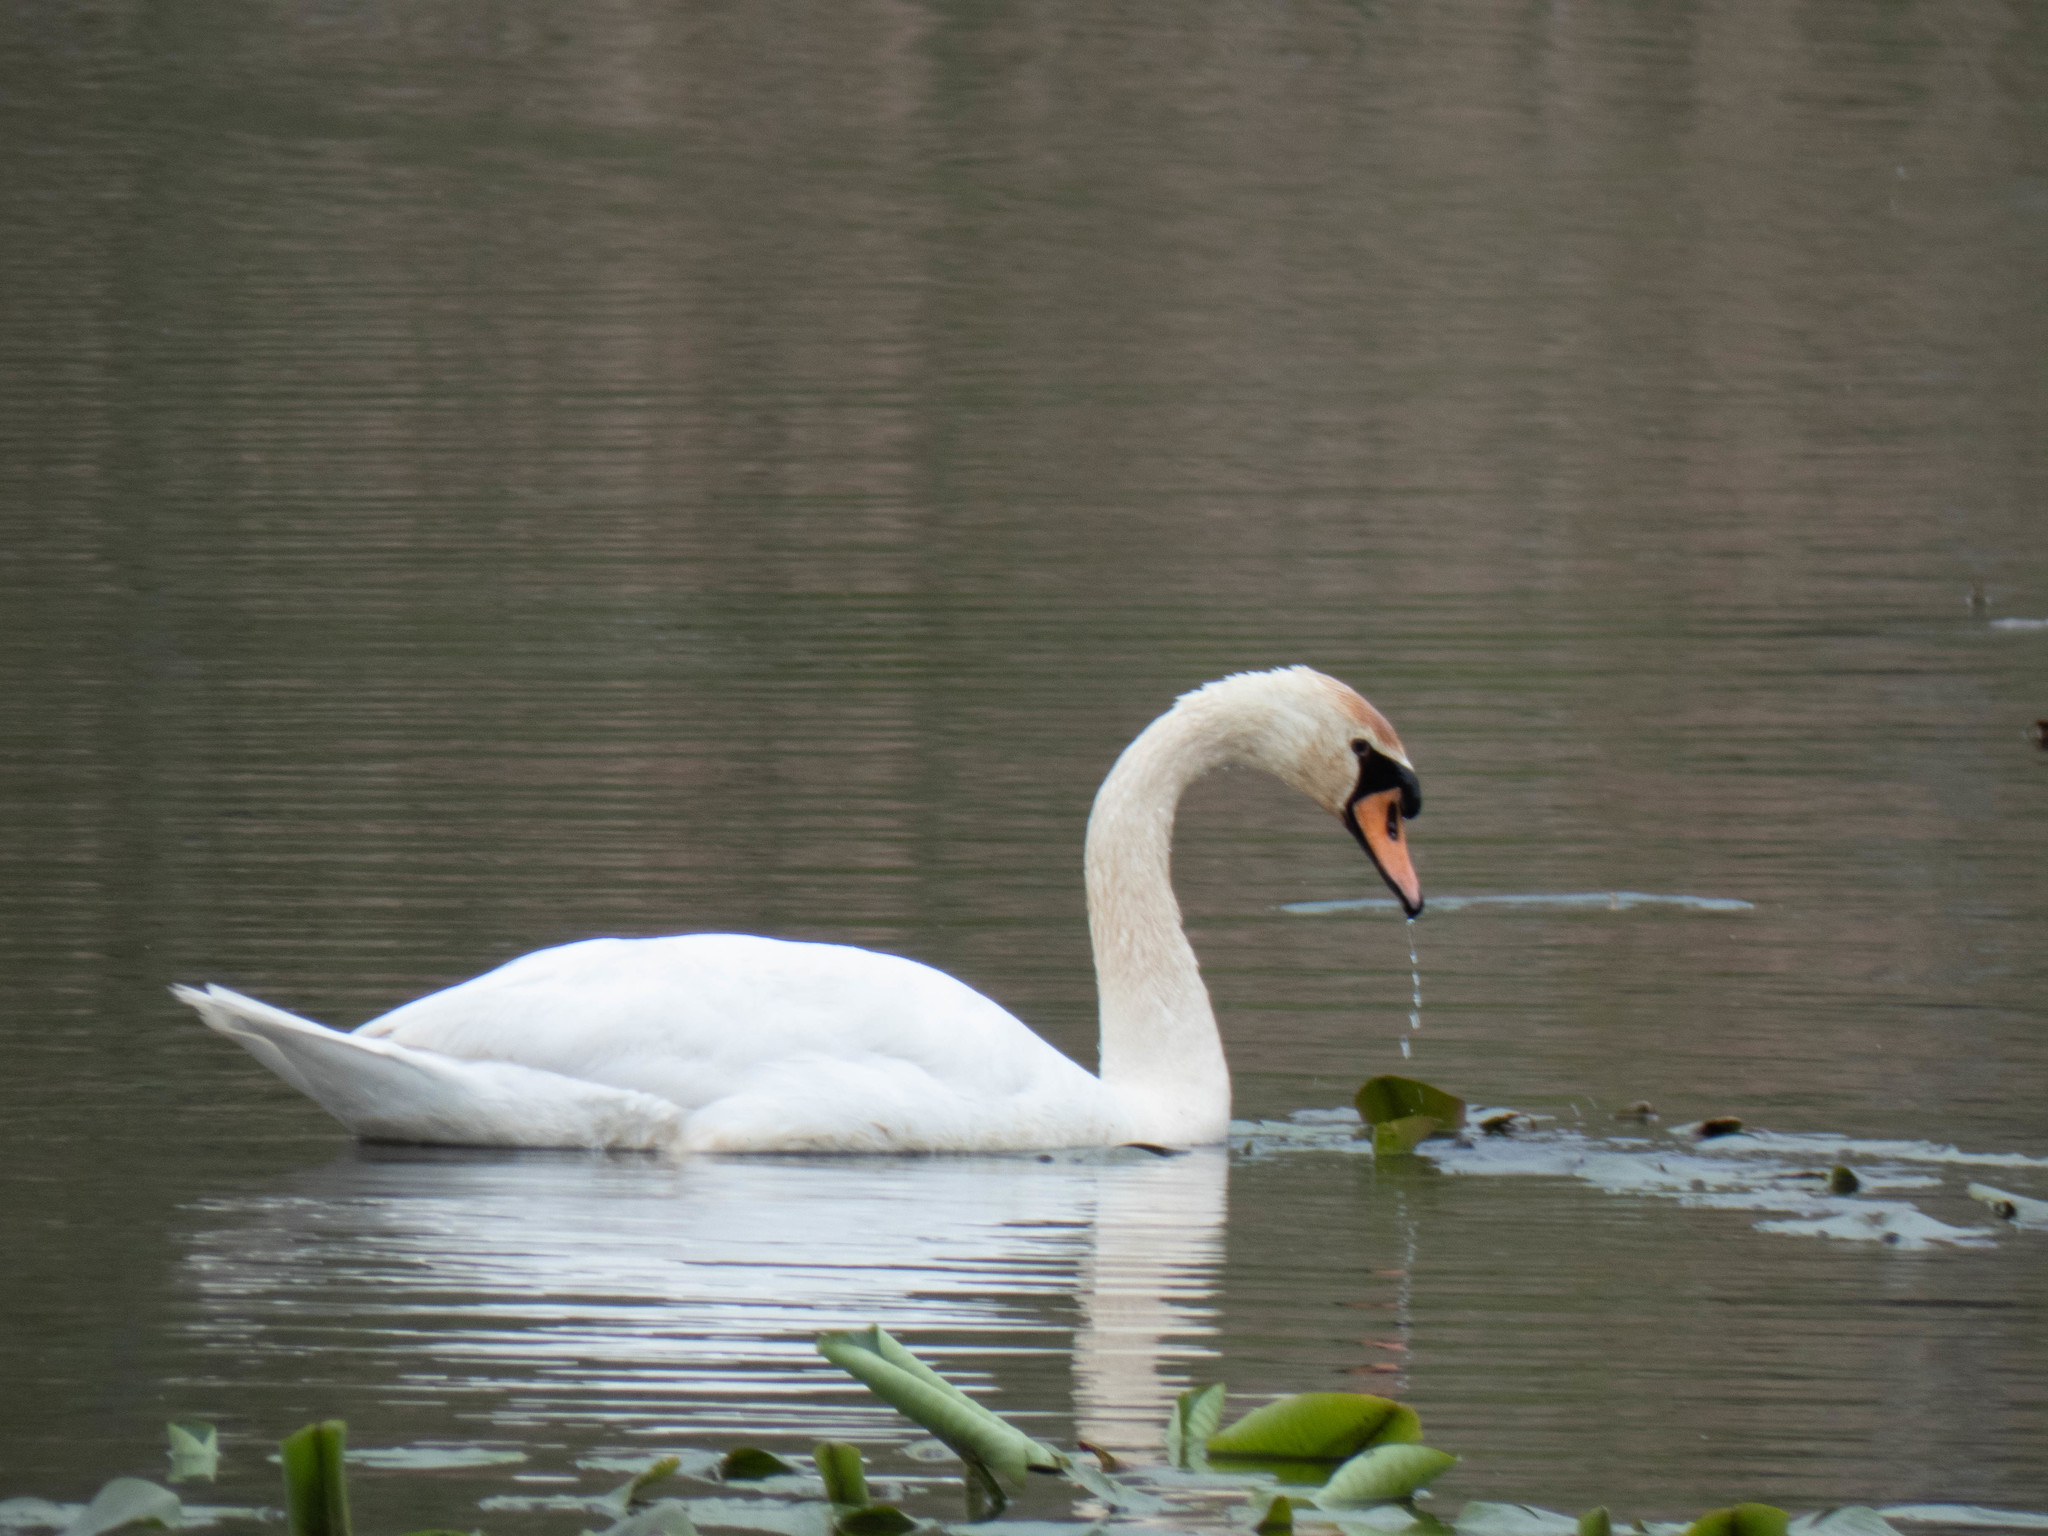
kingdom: Animalia
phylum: Chordata
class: Aves
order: Anseriformes
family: Anatidae
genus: Cygnus
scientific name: Cygnus olor
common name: Mute swan
